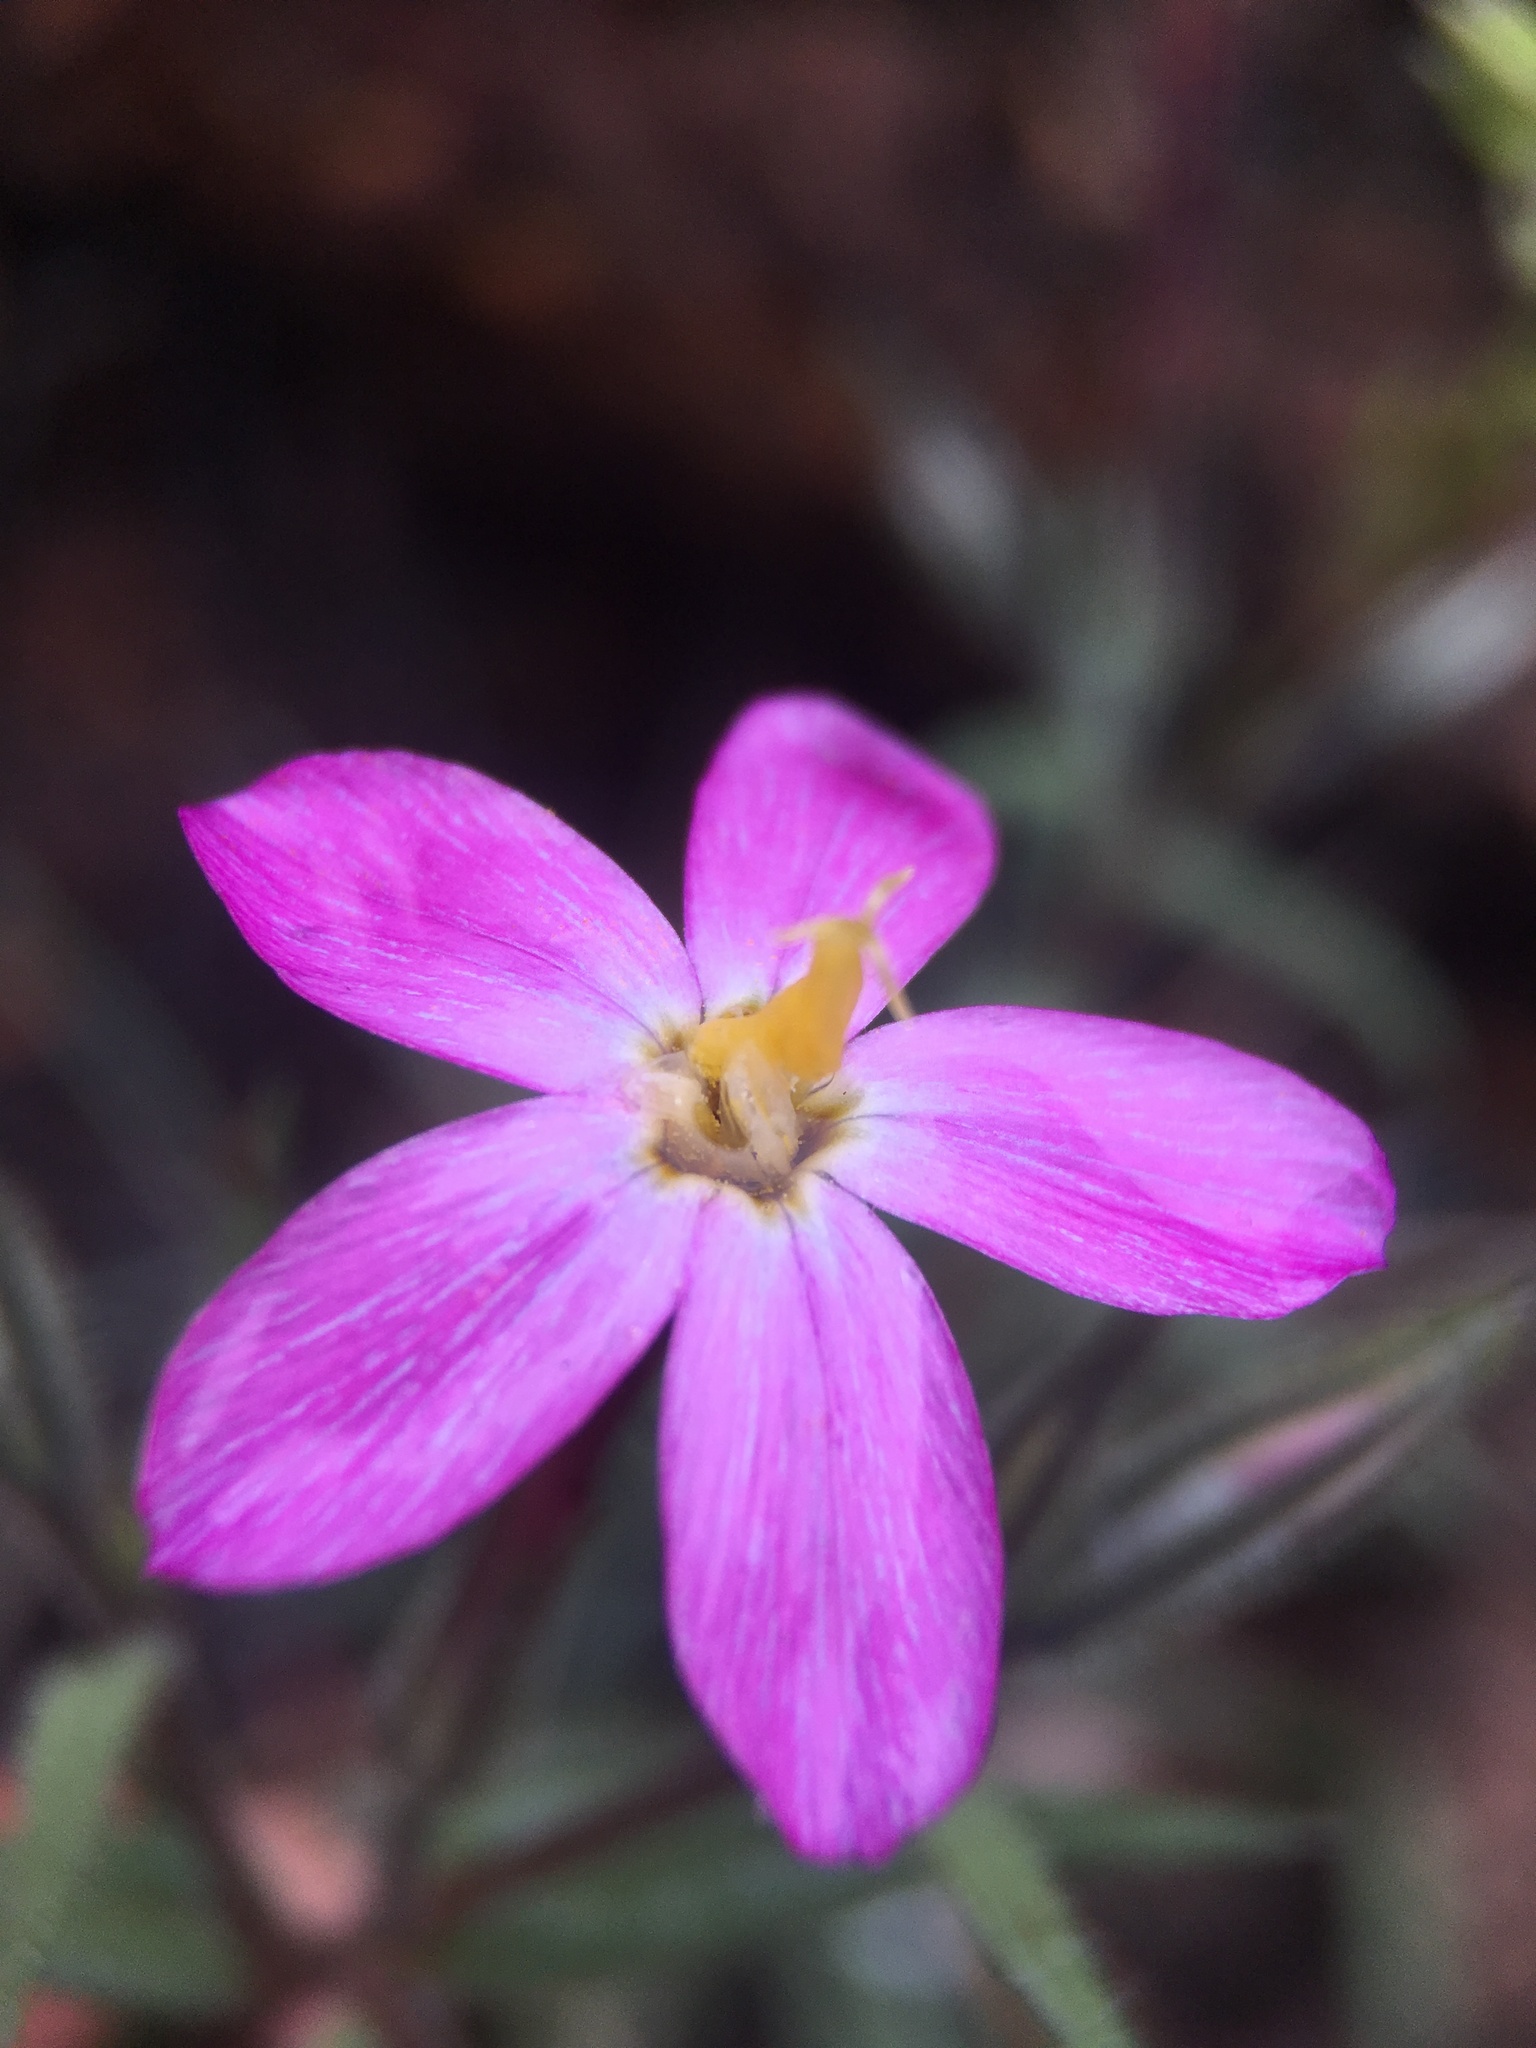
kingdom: Plantae
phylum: Tracheophyta
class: Magnoliopsida
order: Ericales
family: Polemoniaceae
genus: Phlox
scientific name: Phlox dolichantha
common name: Bear valley phlox
